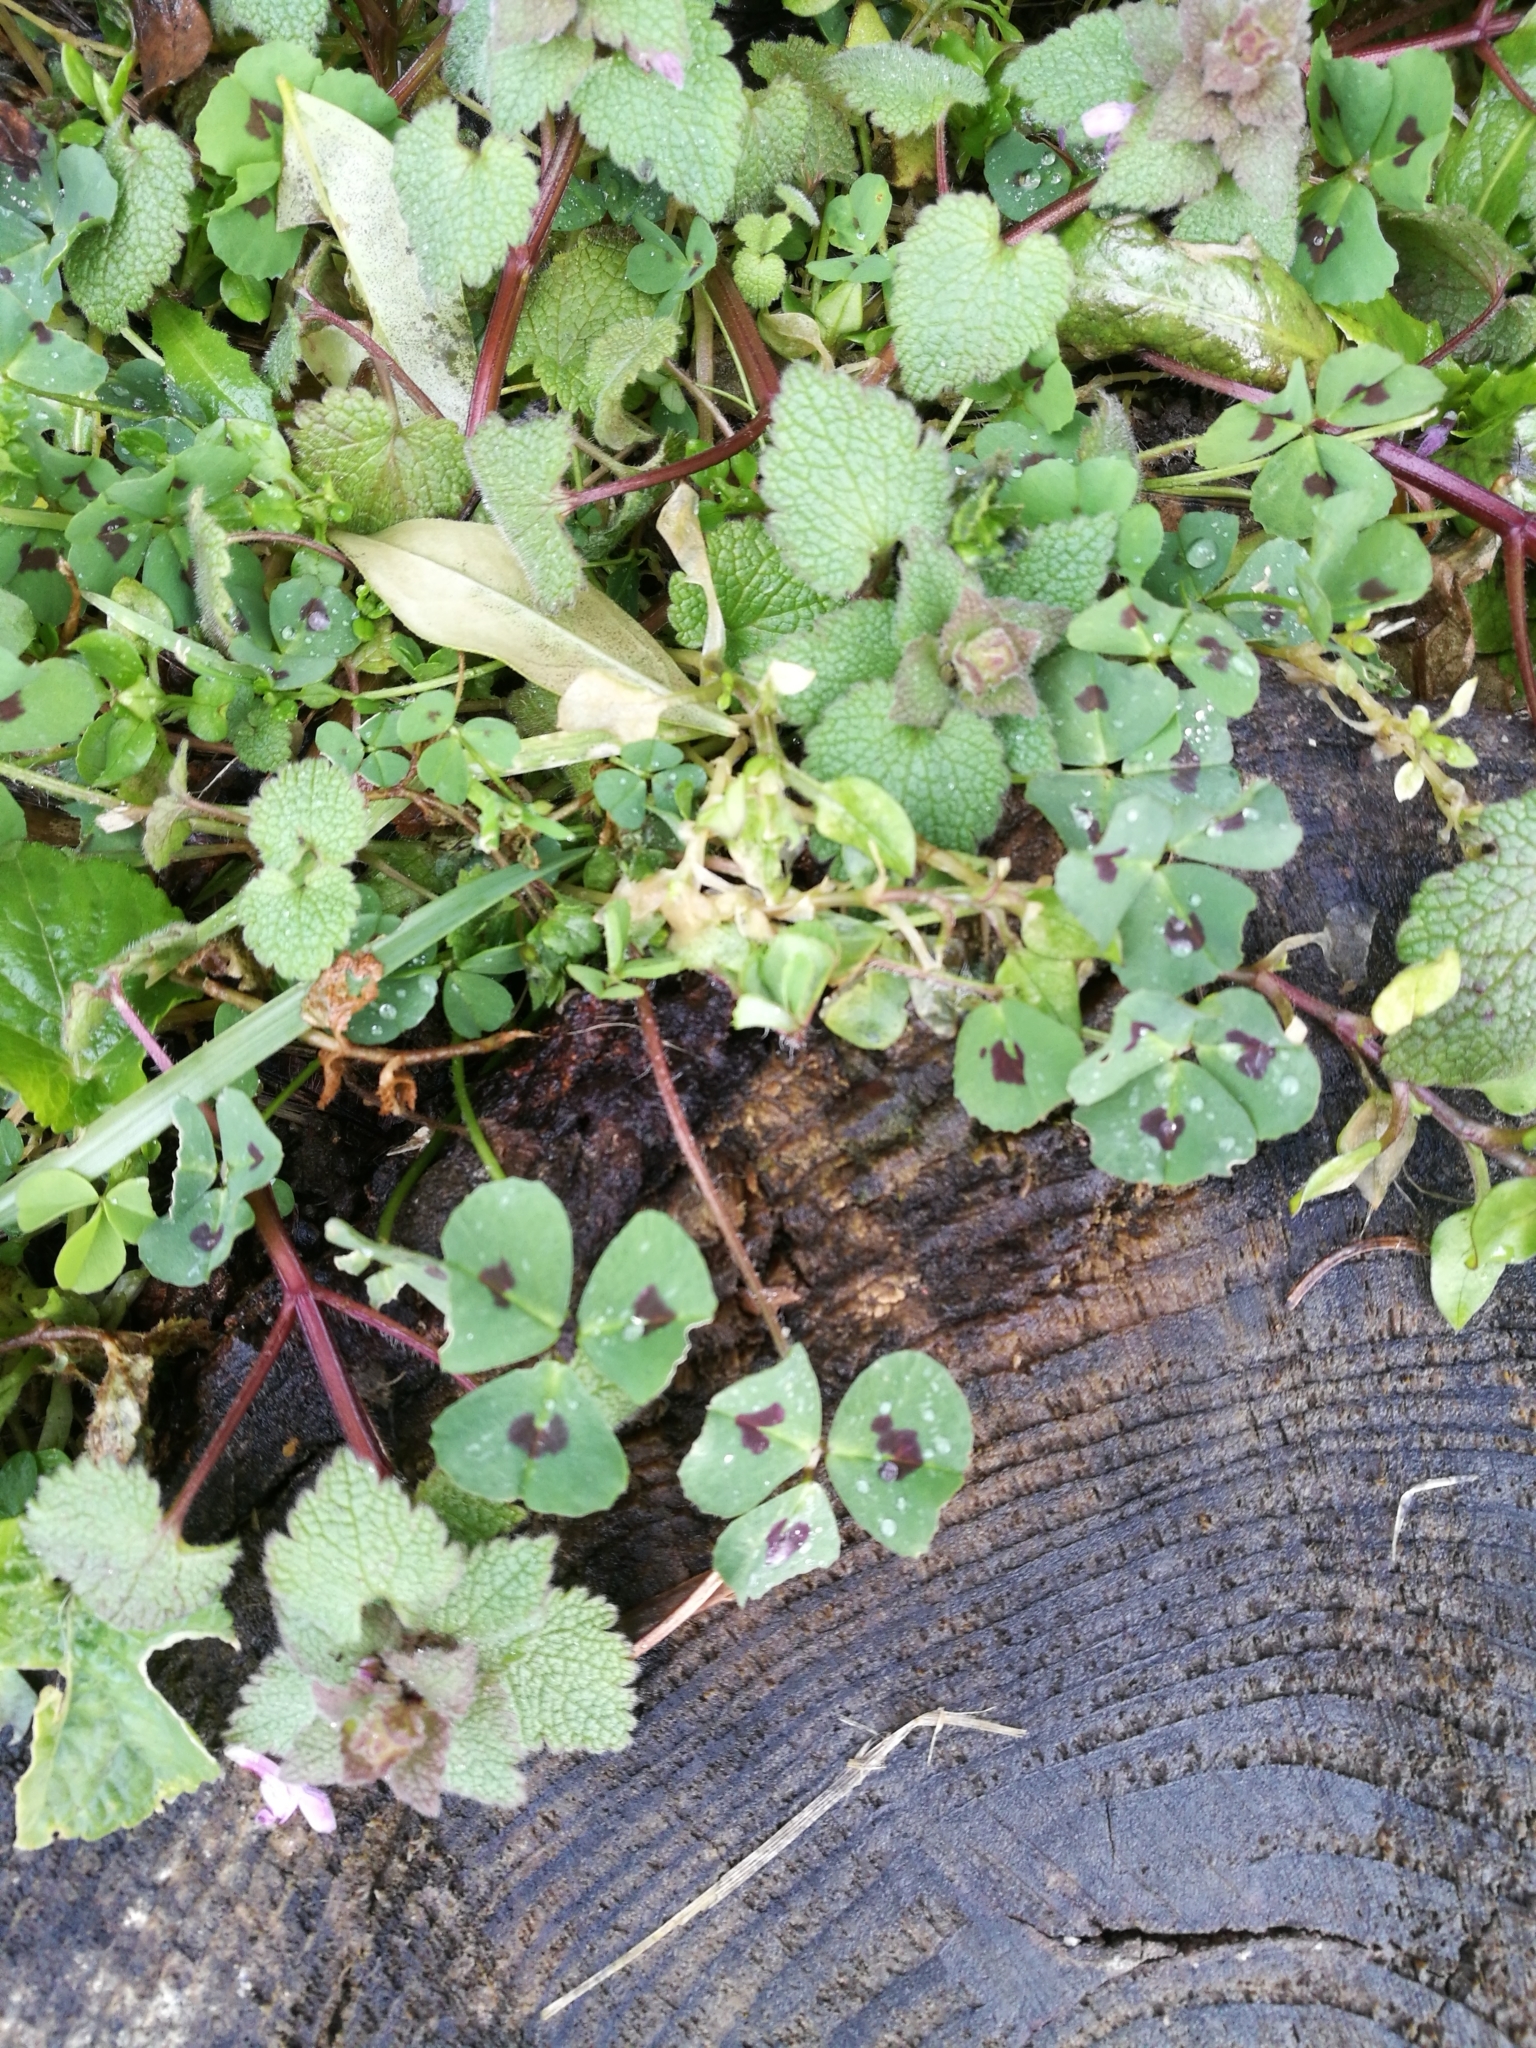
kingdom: Plantae
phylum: Tracheophyta
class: Magnoliopsida
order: Fabales
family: Fabaceae
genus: Medicago
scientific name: Medicago arabica
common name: Spotted medick
